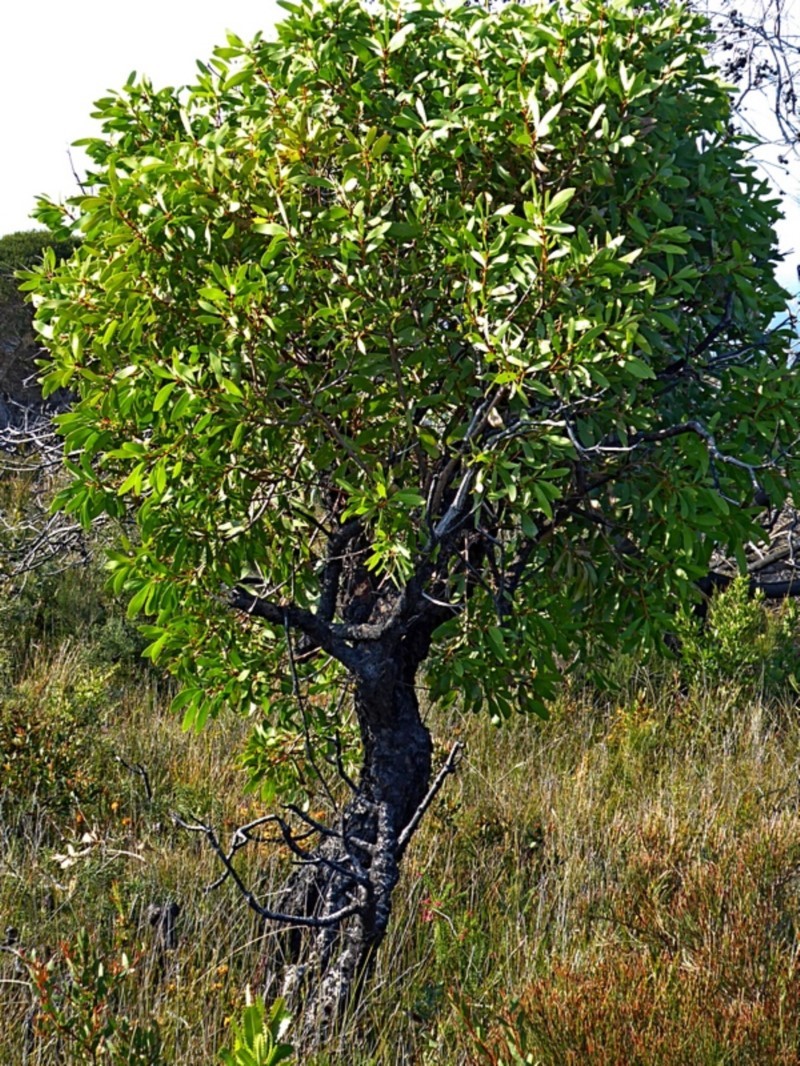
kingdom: Plantae
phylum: Tracheophyta
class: Magnoliopsida
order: Proteales
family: Proteaceae
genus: Persoonia
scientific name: Persoonia levis
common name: Smooth geebung
